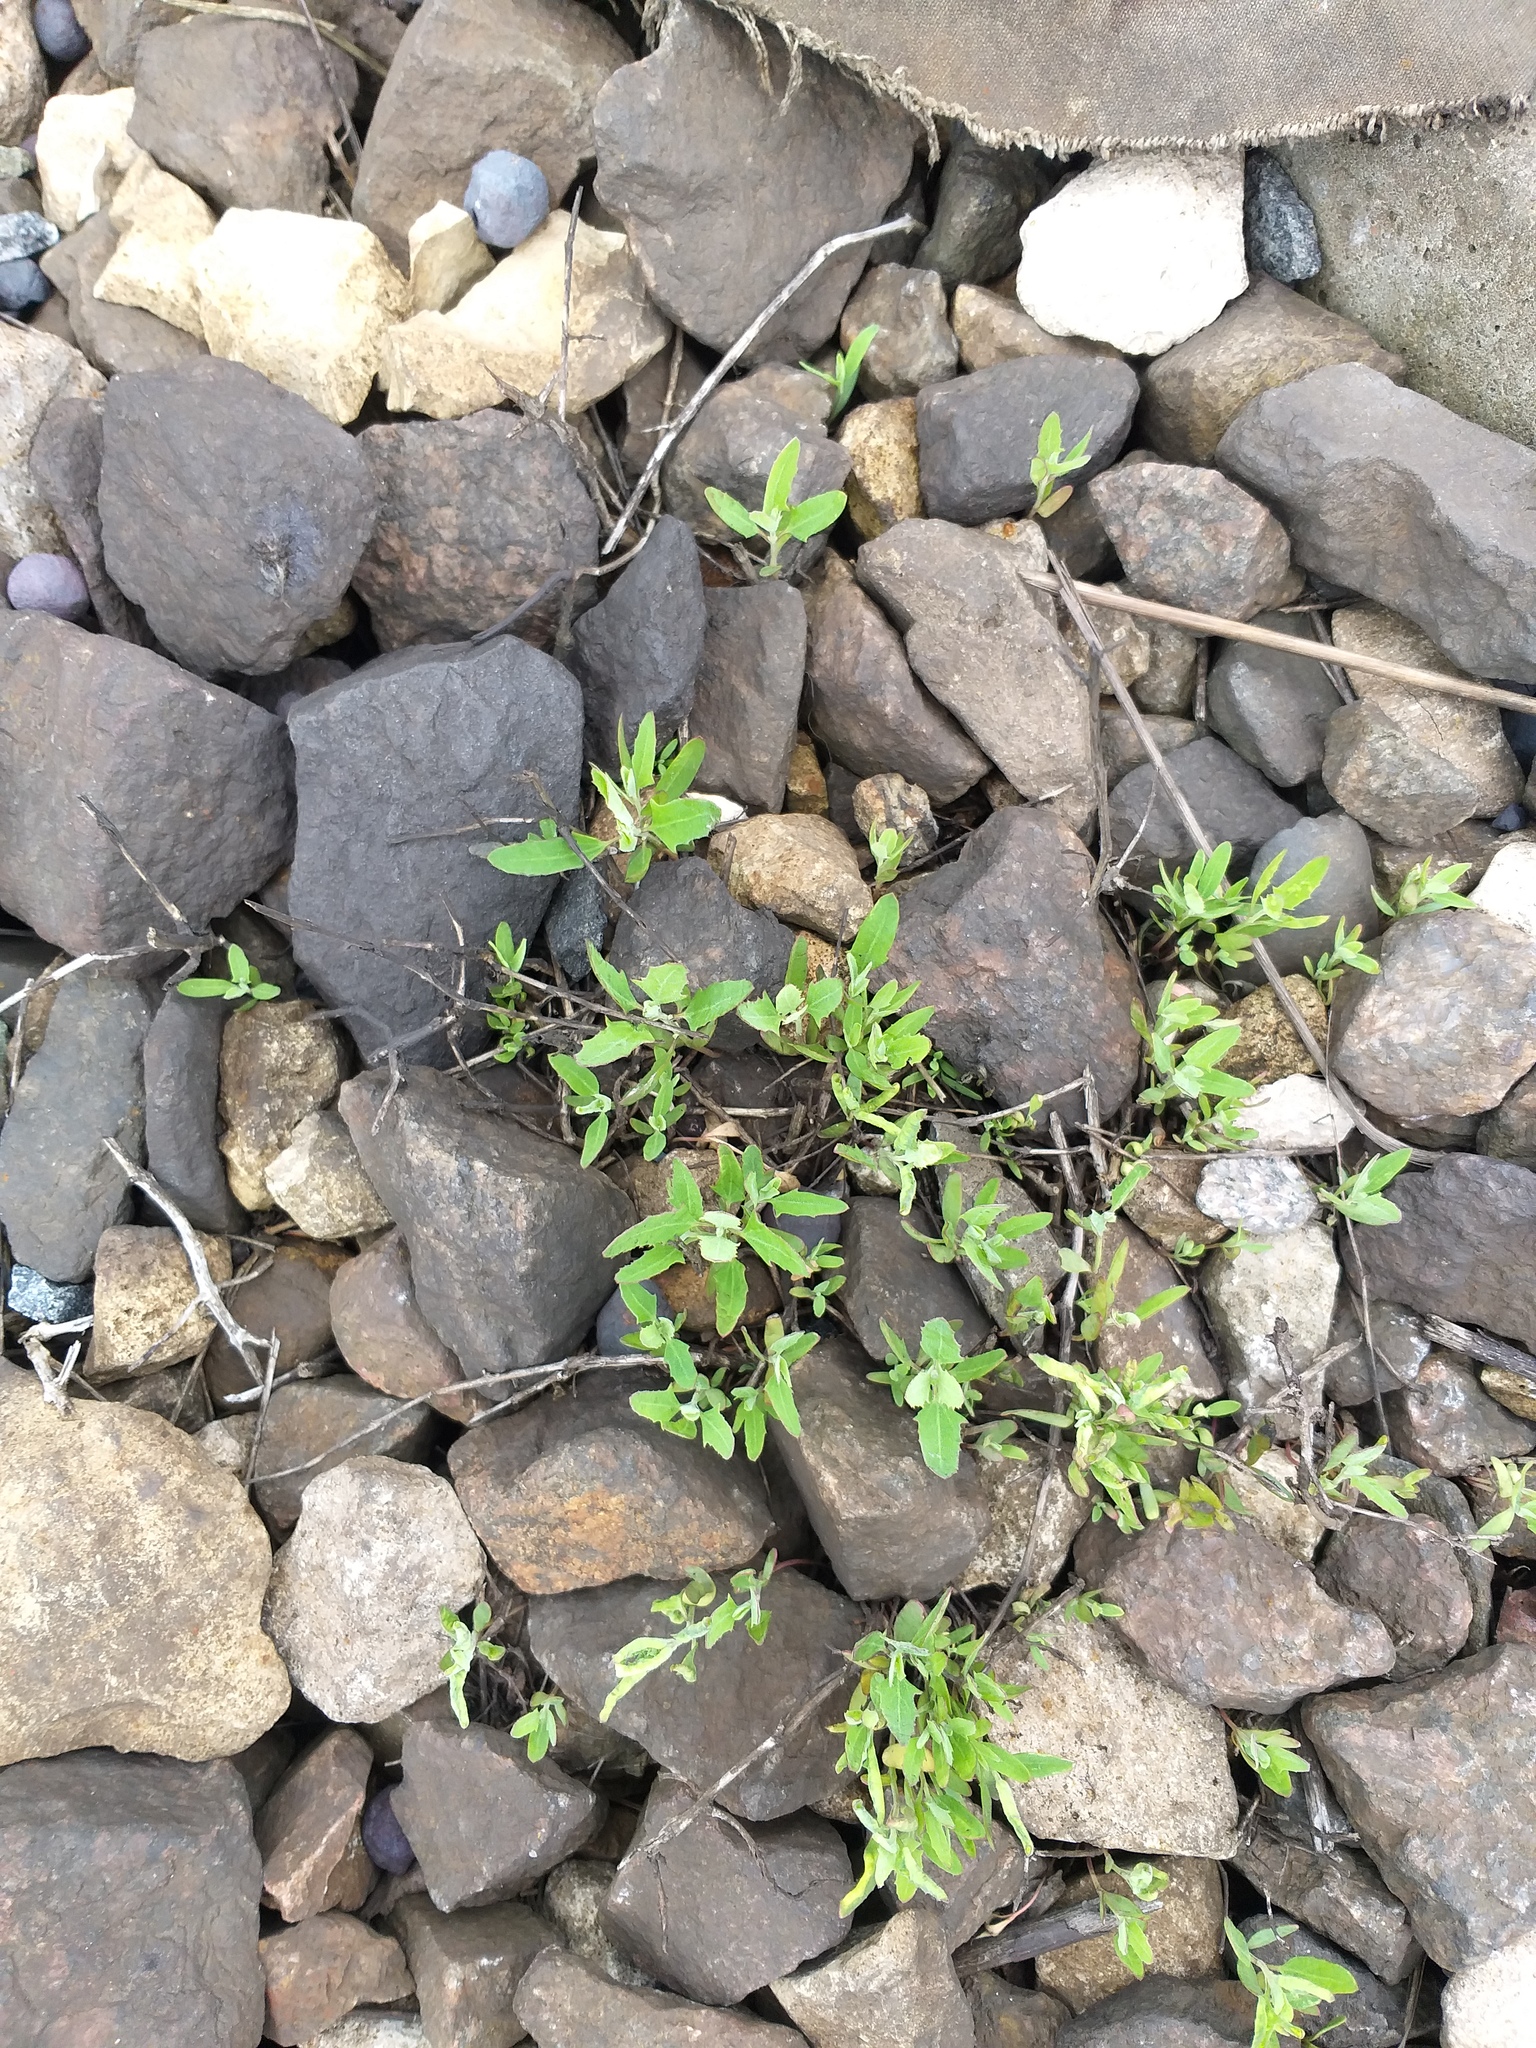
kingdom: Plantae
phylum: Tracheophyta
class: Magnoliopsida
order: Caryophyllales
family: Amaranthaceae
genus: Atriplex
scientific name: Atriplex patula
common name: Common orache
